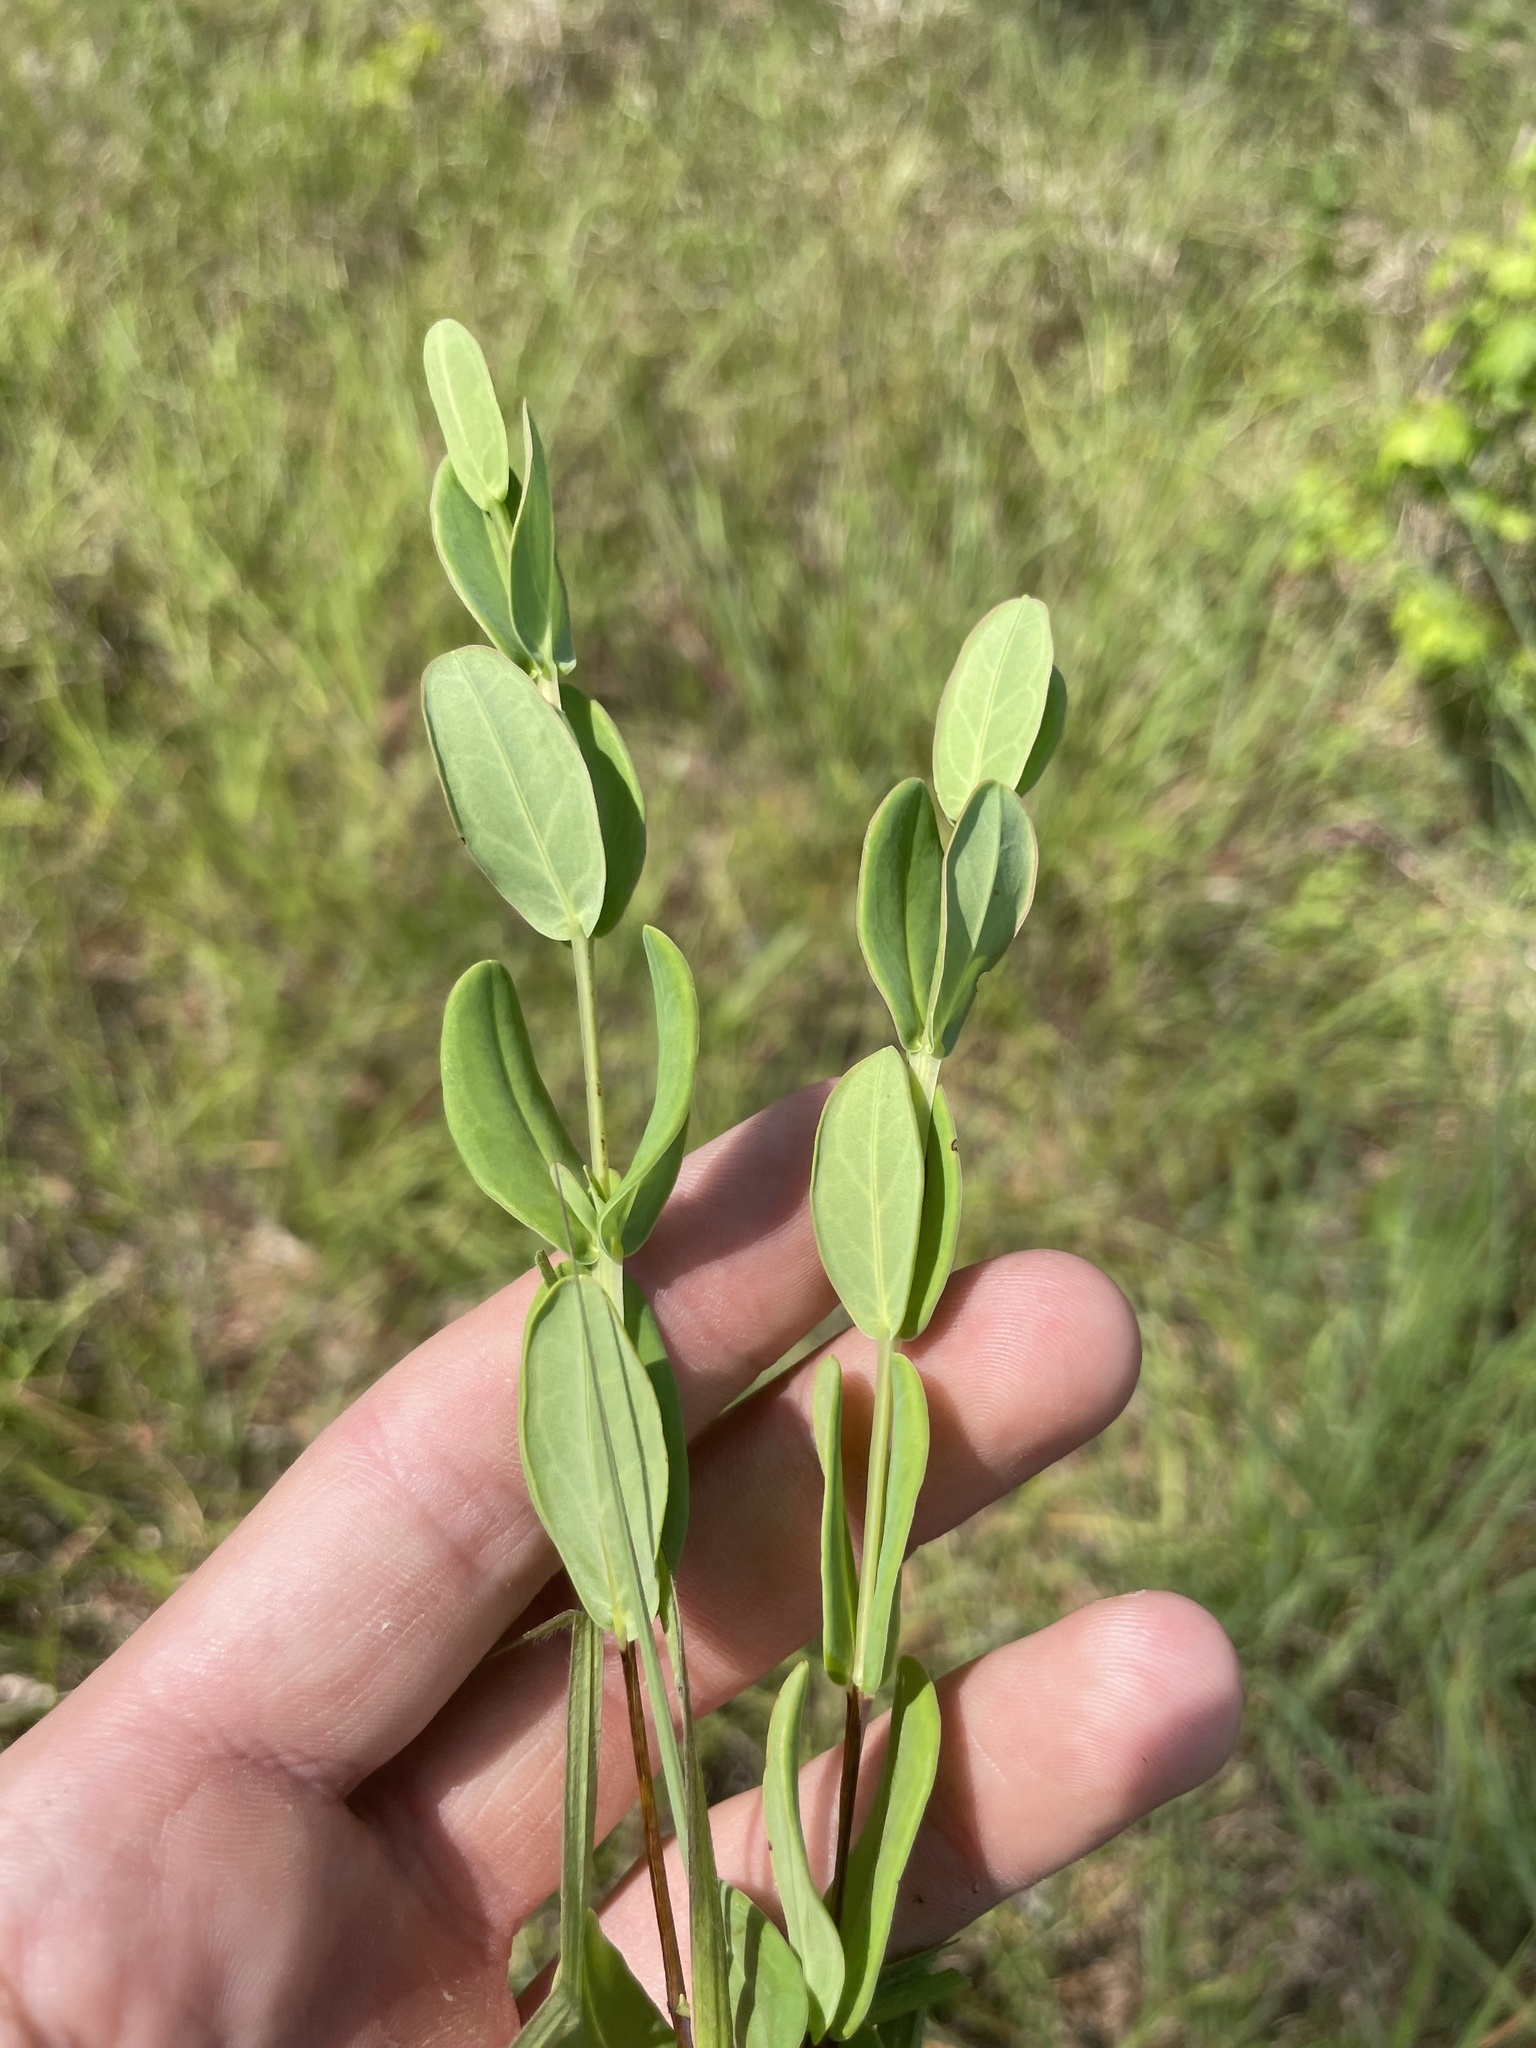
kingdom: Plantae
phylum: Tracheophyta
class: Magnoliopsida
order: Malpighiales
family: Hypericaceae
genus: Hypericum
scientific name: Hypericum crux-andreae
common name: St.-peter's-wort
